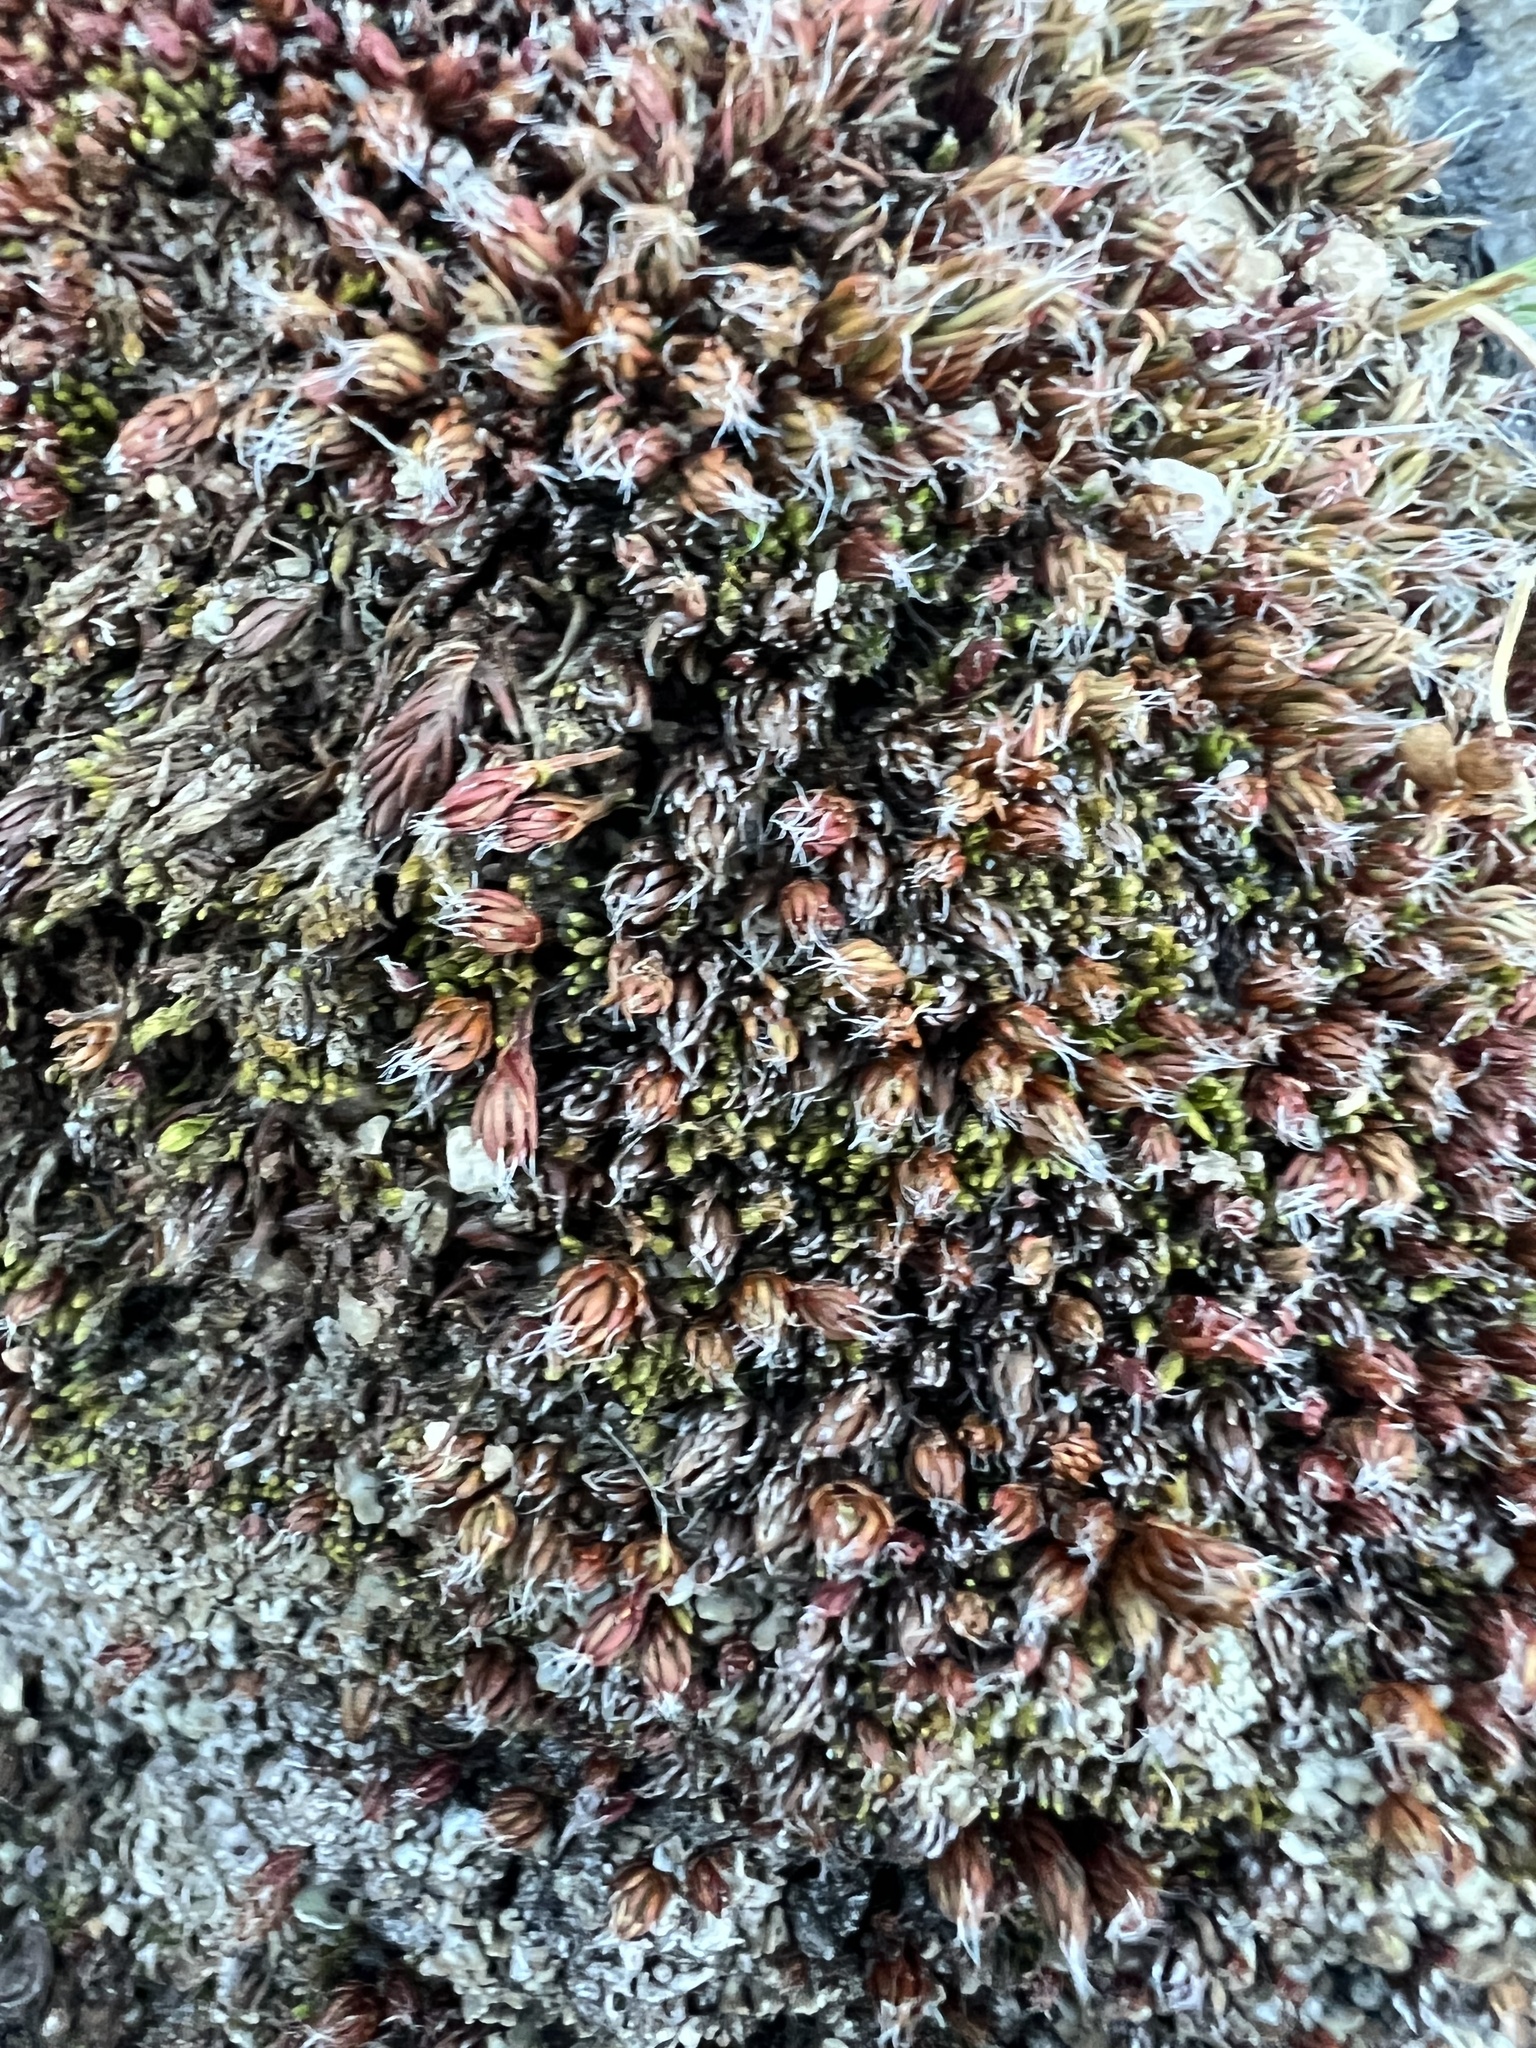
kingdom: Plantae
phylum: Bryophyta
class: Polytrichopsida
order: Polytrichales
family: Polytrichaceae
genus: Polytrichum
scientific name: Polytrichum piliferum
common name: Bristly haircap
